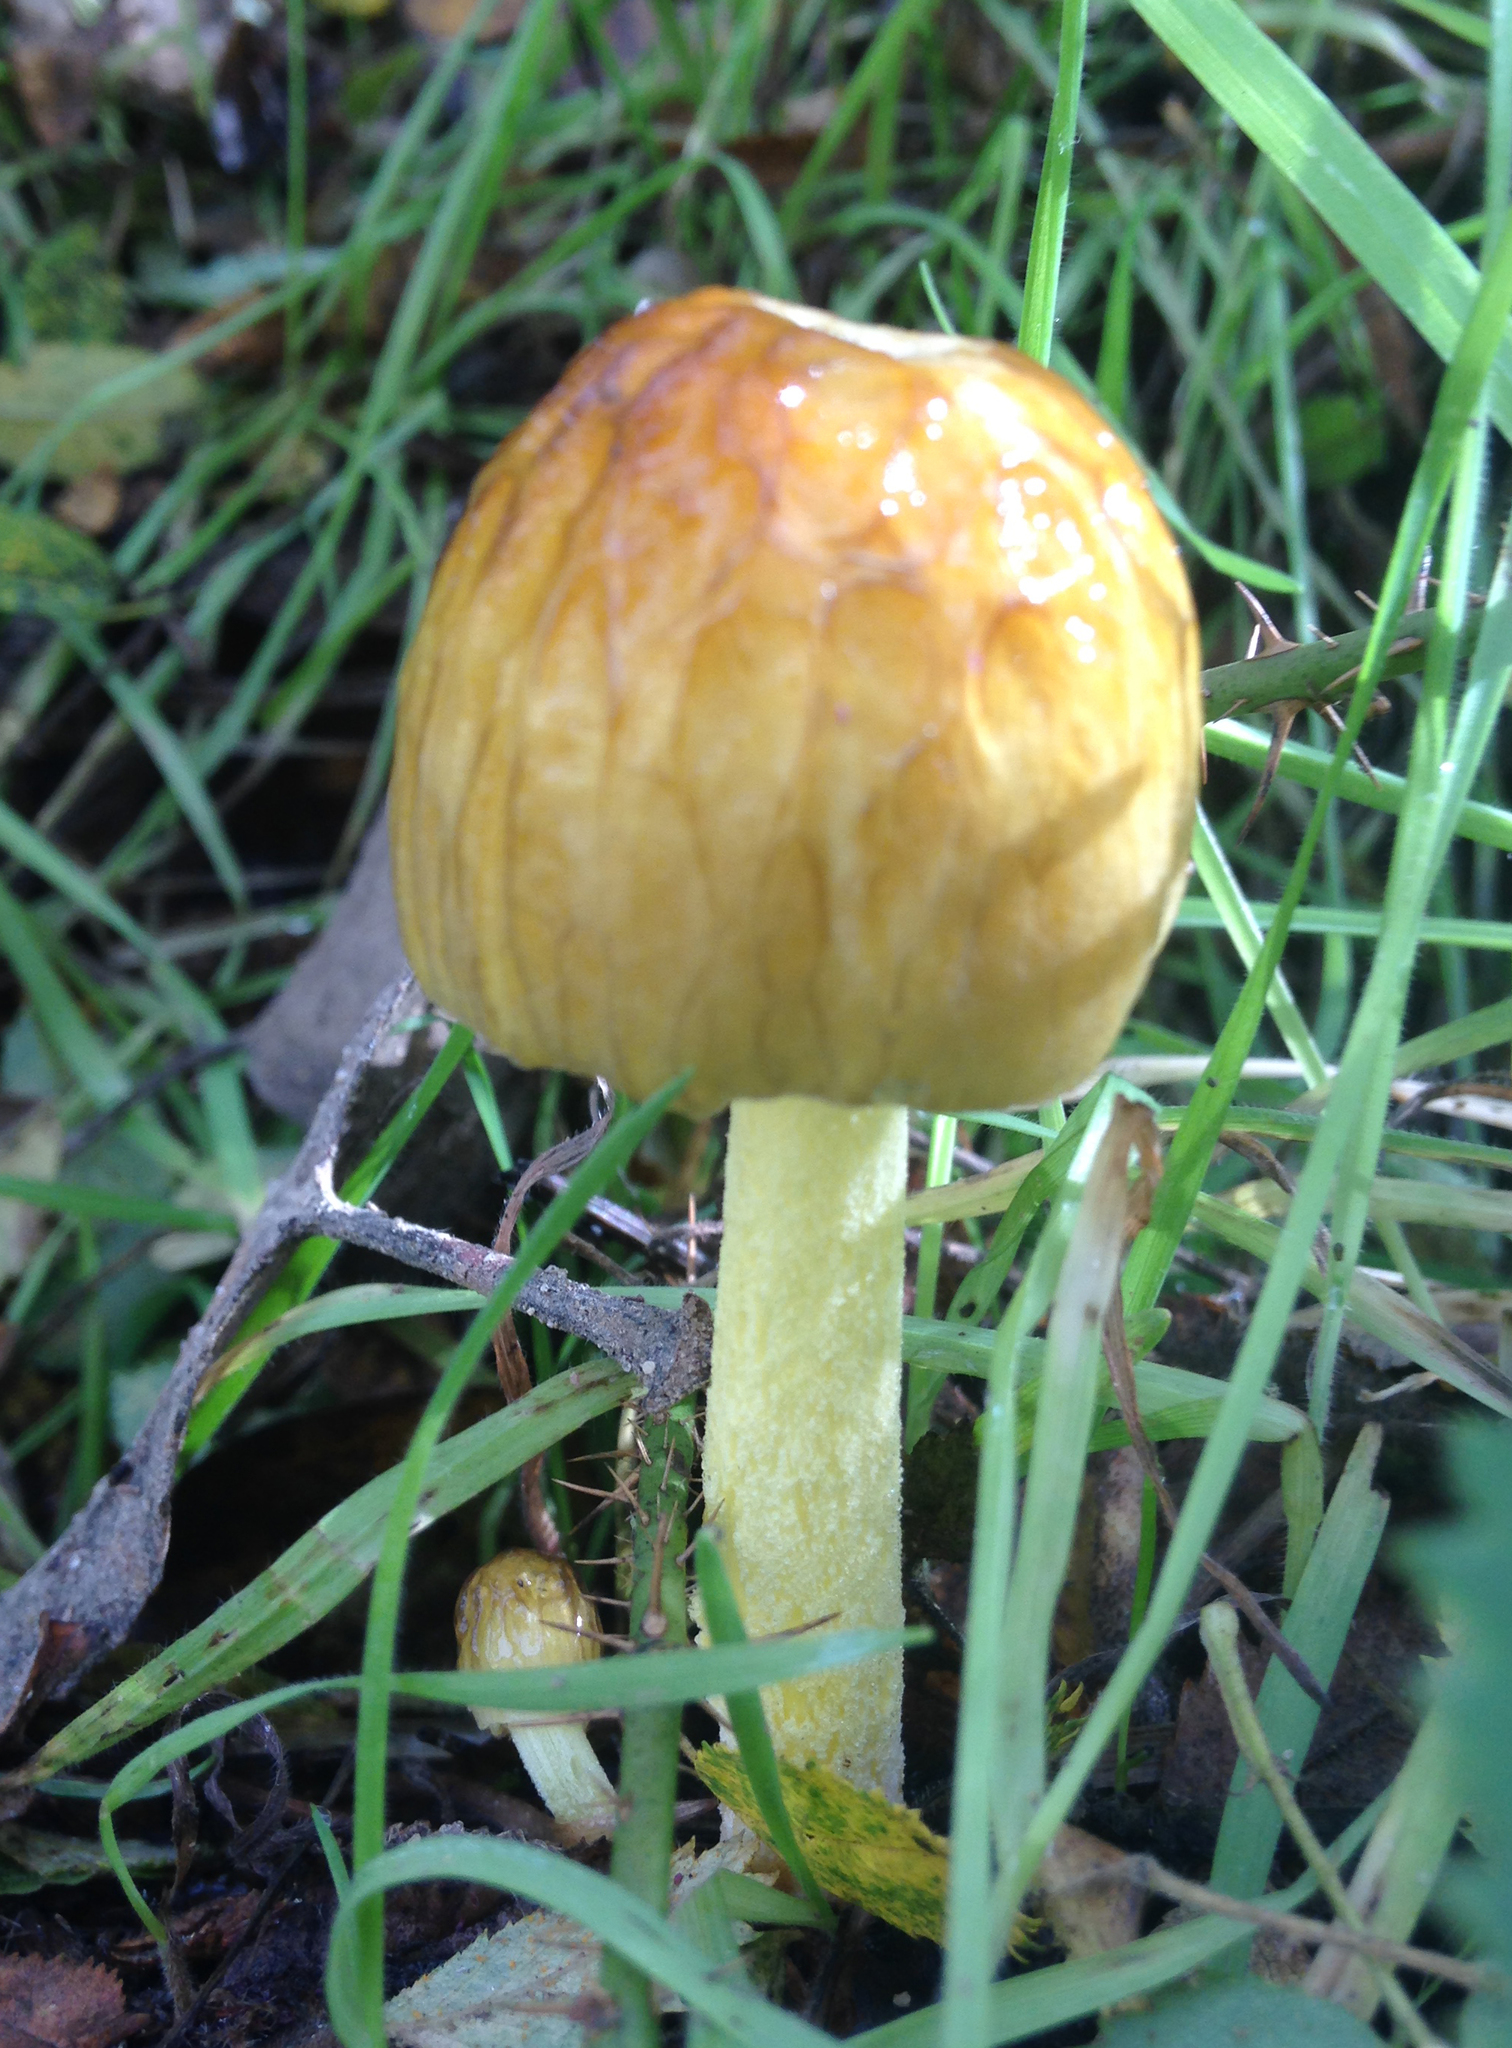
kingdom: Fungi
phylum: Basidiomycota
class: Agaricomycetes
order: Agaricales
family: Bolbitiaceae
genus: Bolbitius
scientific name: Bolbitius titubans
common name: Yellow fieldcap
